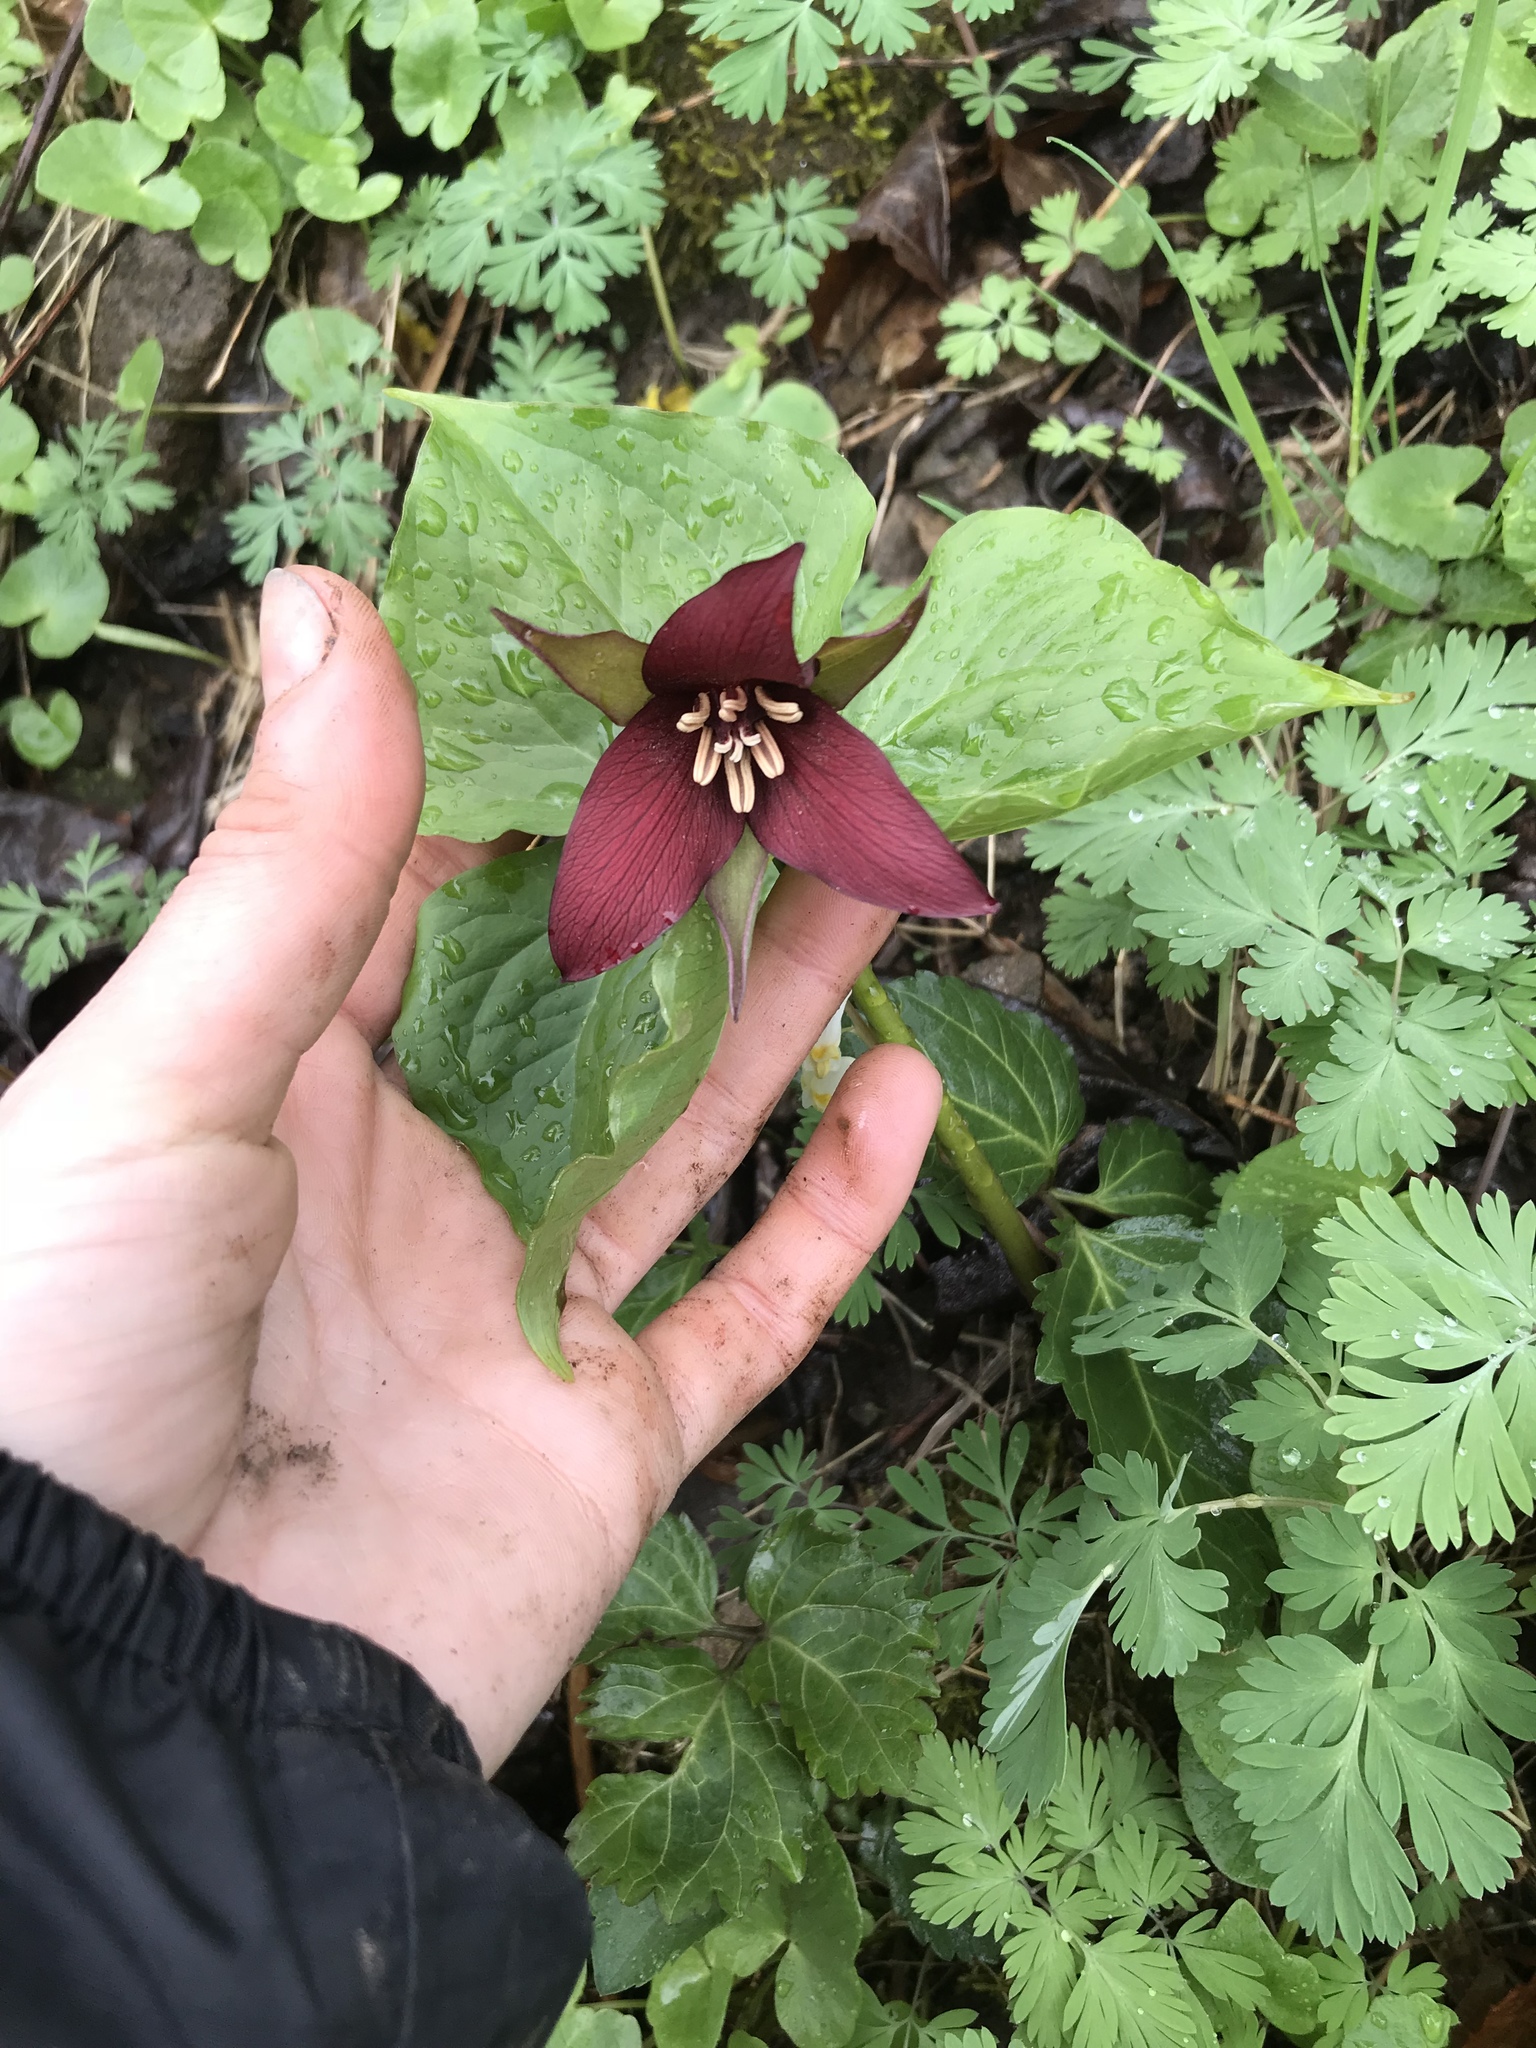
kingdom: Plantae
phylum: Tracheophyta
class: Liliopsida
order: Liliales
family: Melanthiaceae
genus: Trillium
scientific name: Trillium erectum
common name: Purple trillium
